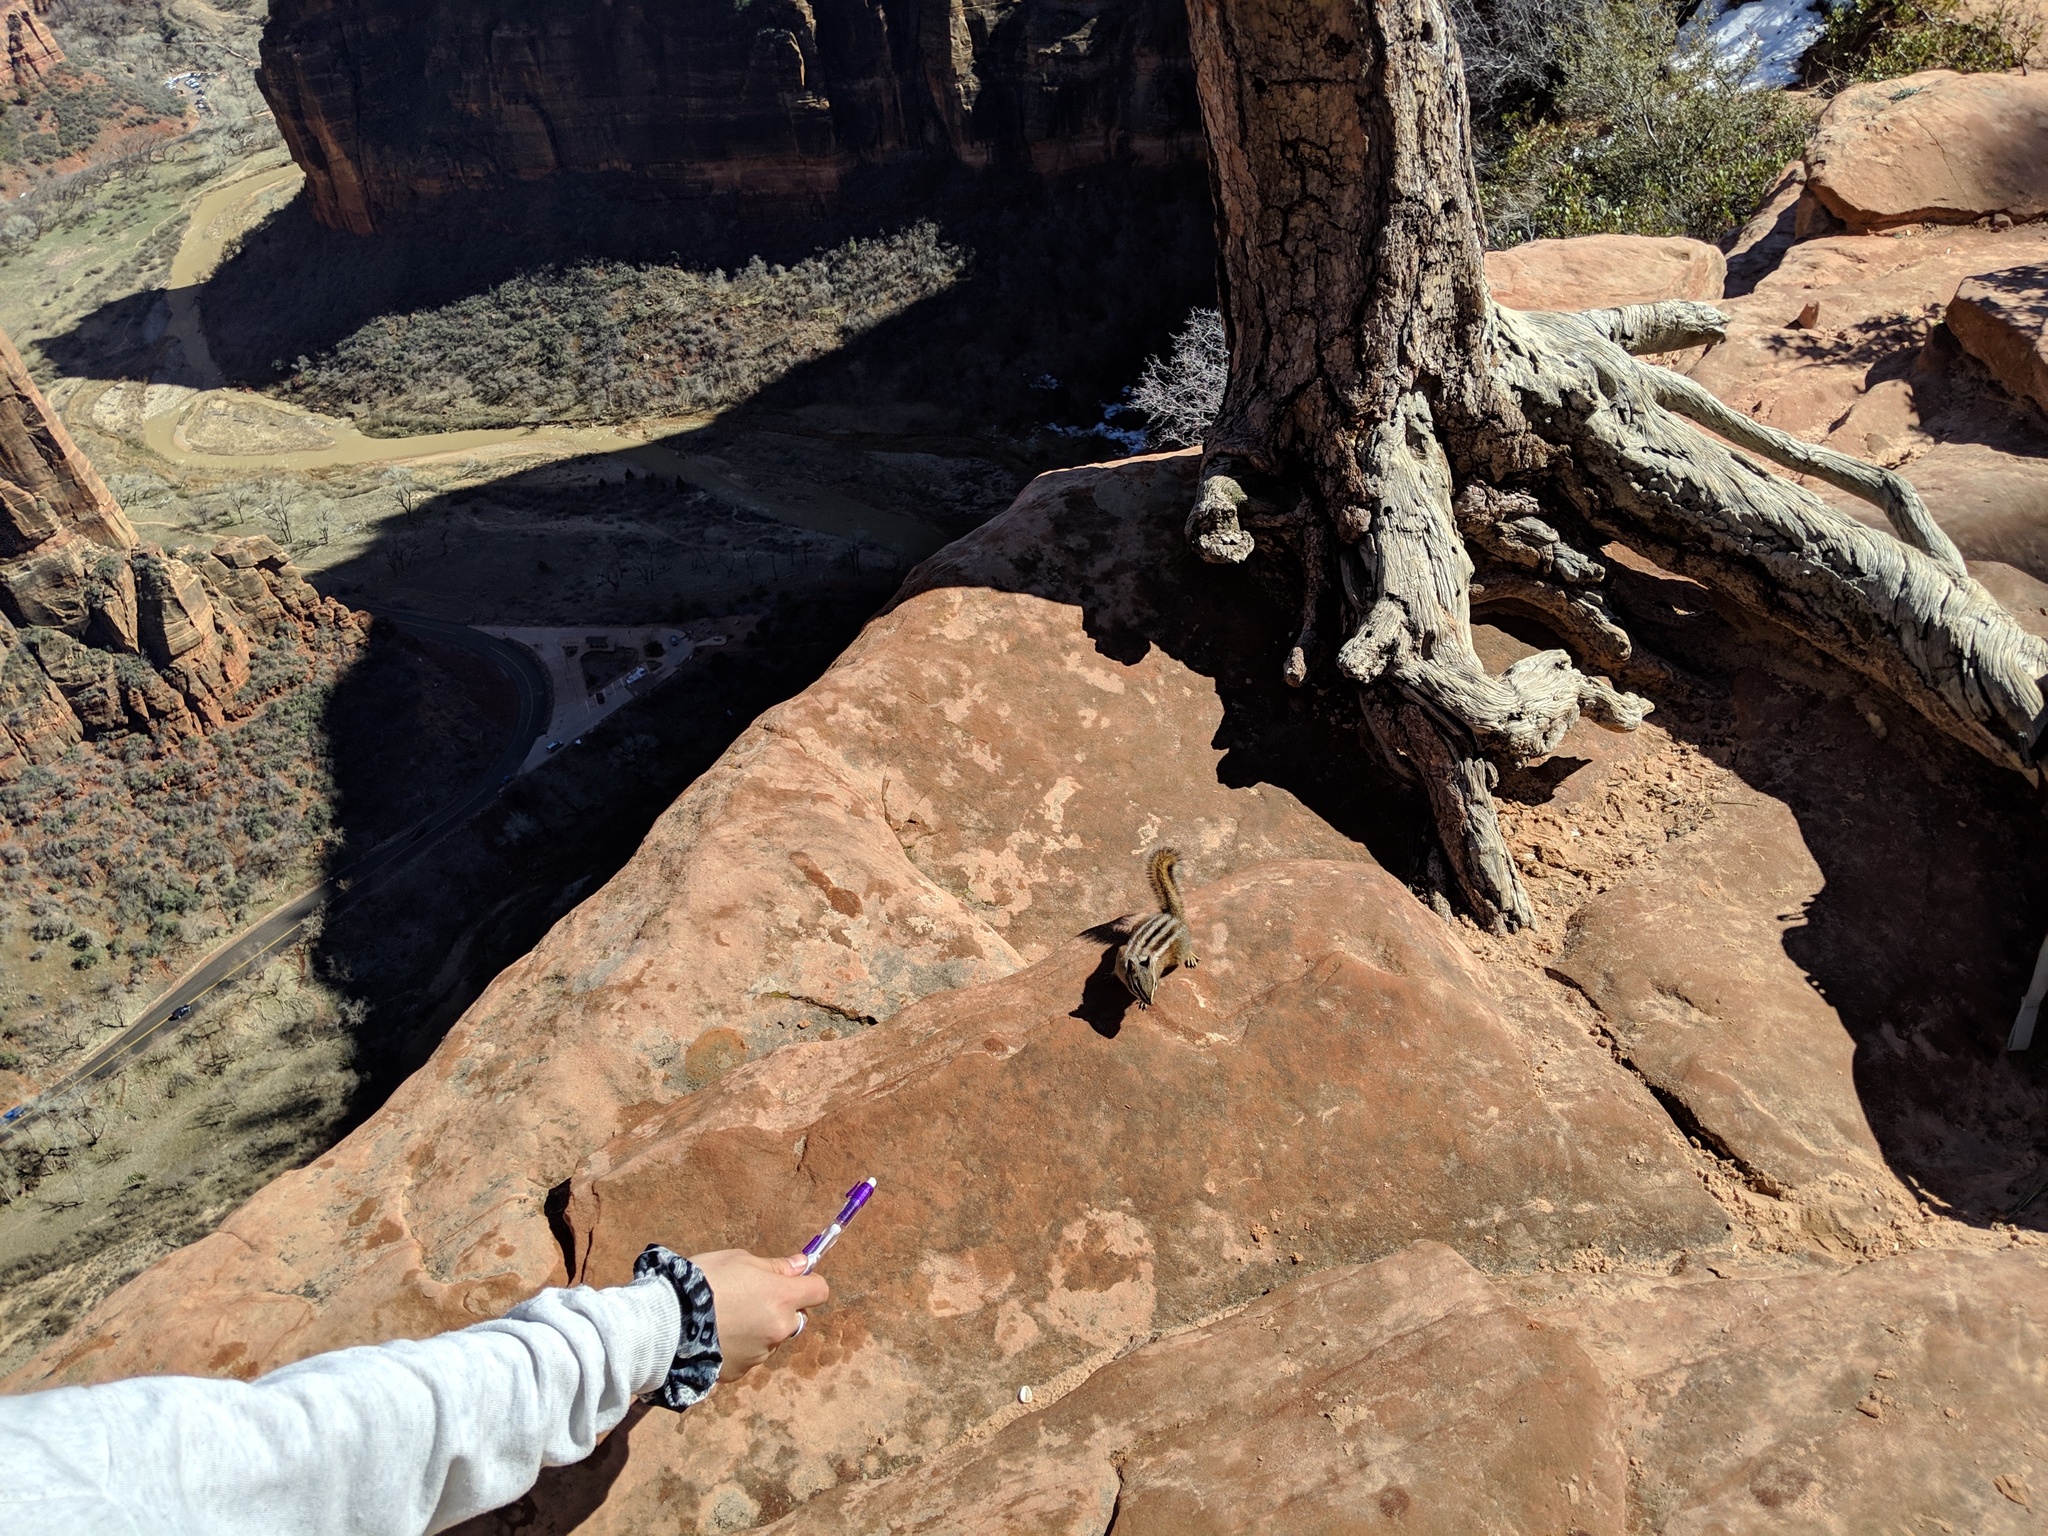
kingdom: Animalia
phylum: Chordata
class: Mammalia
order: Rodentia
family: Sciuridae
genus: Tamias
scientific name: Tamias umbrinus
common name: Uinta chipmunk
